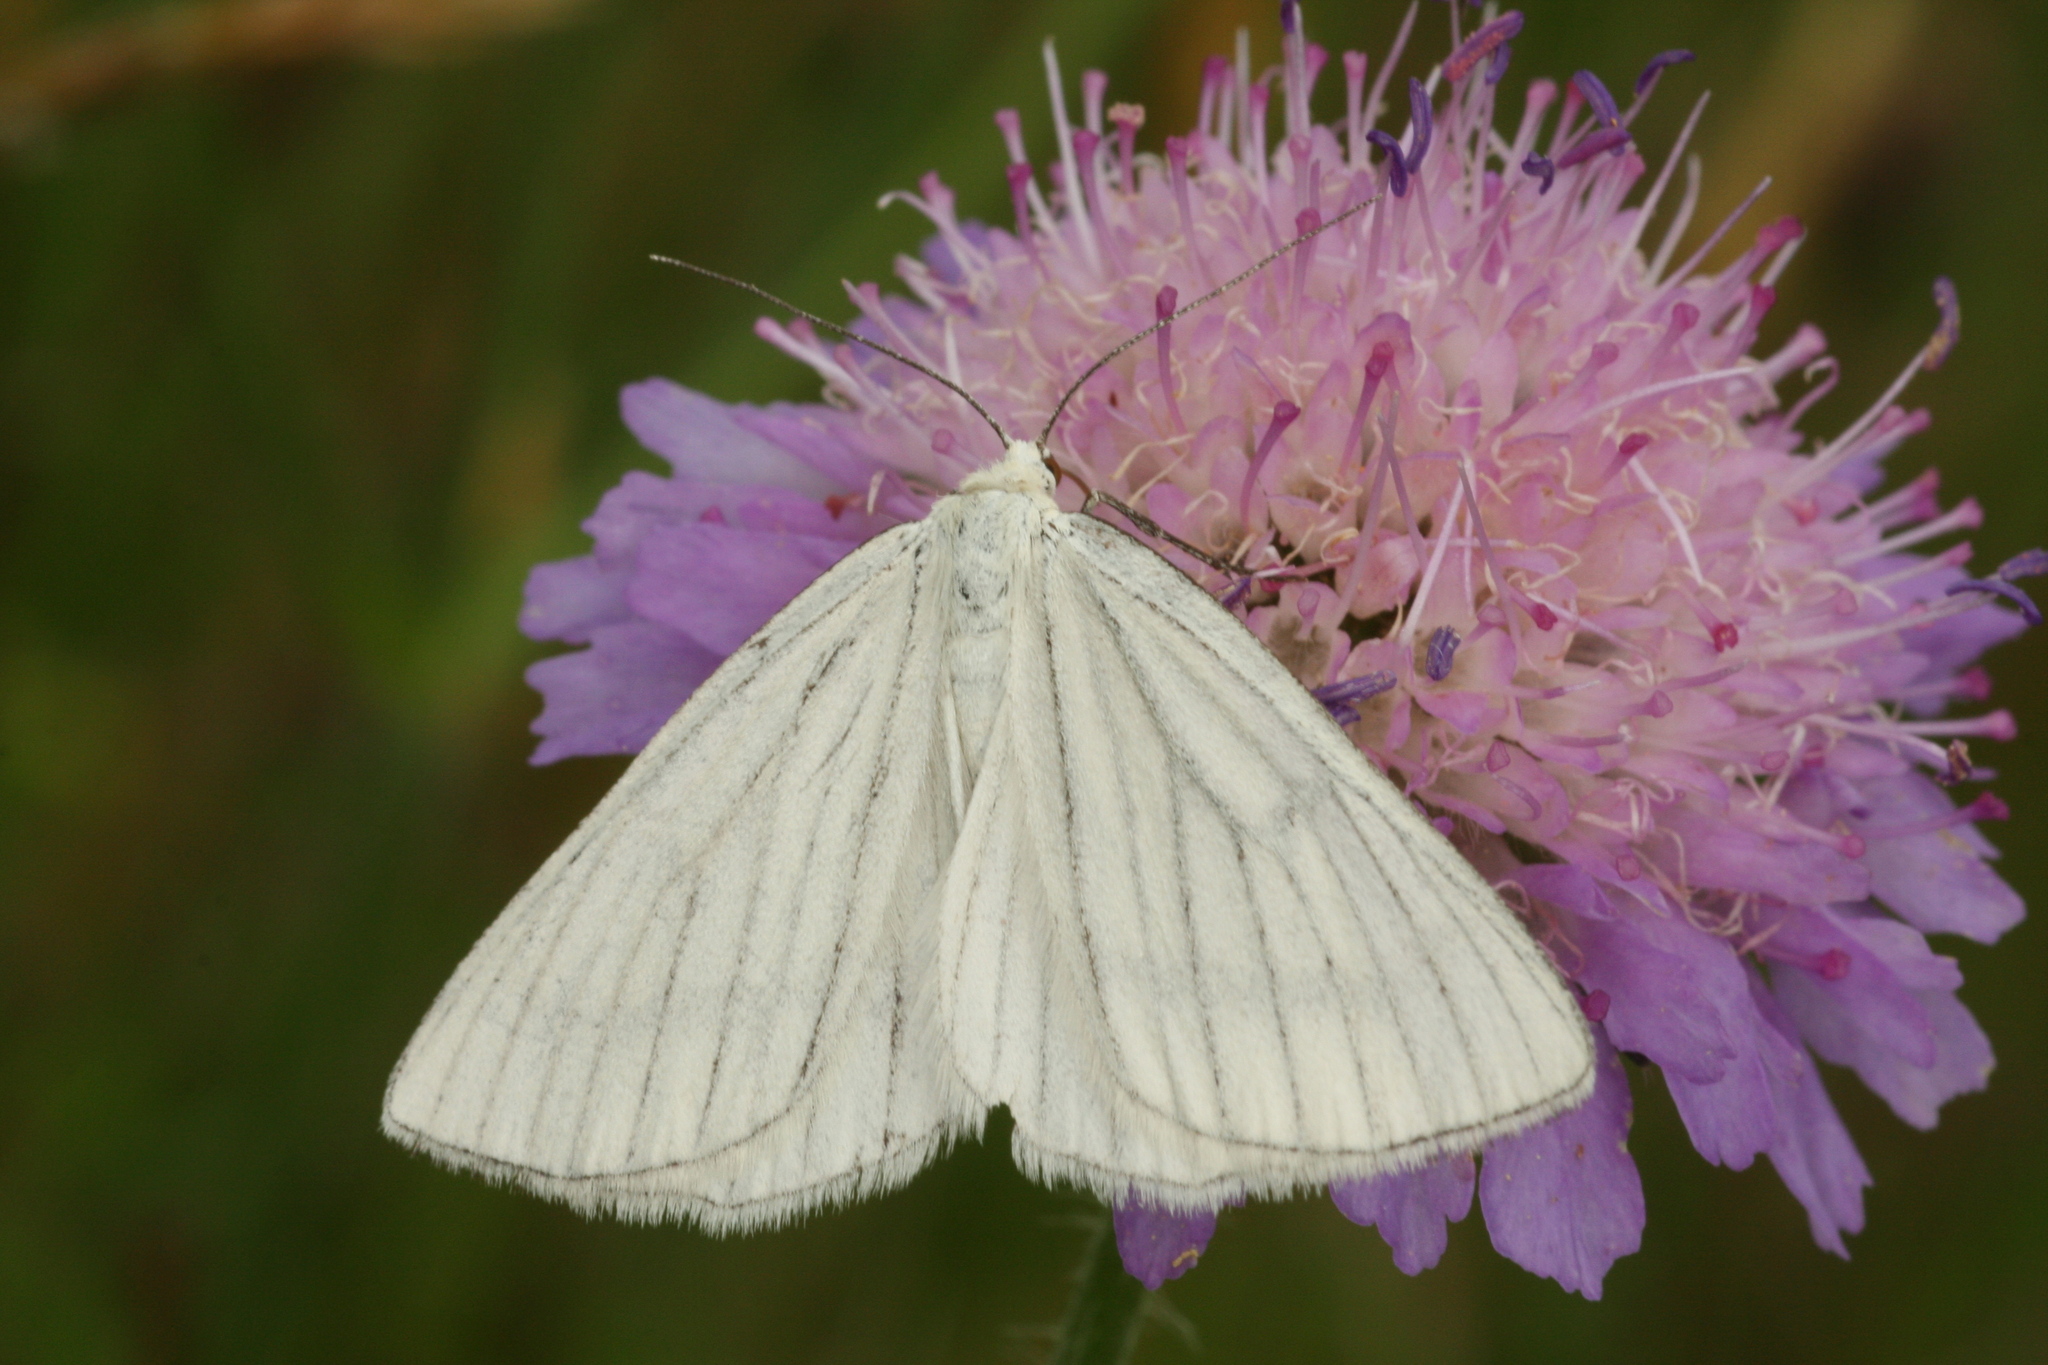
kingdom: Animalia
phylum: Arthropoda
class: Insecta
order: Lepidoptera
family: Geometridae
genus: Siona
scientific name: Siona lineata
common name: Black-veined moth
